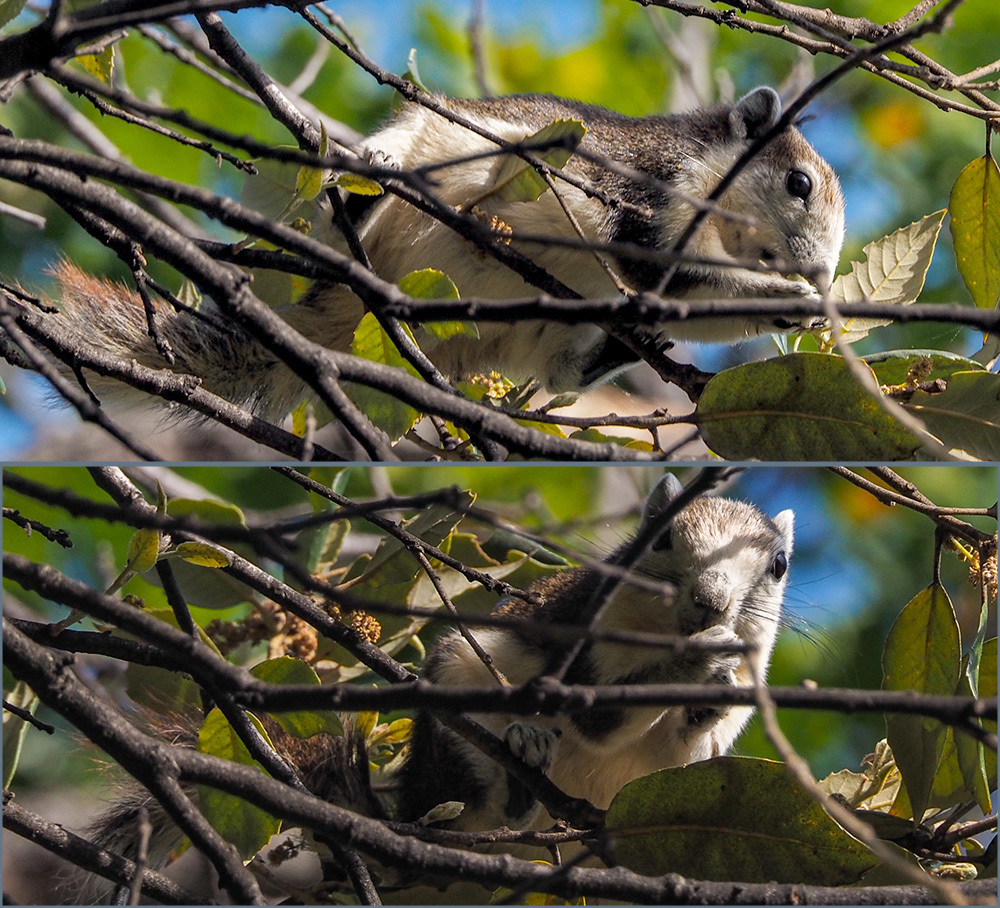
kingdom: Animalia
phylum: Chordata
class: Mammalia
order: Rodentia
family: Sciuridae
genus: Callosciurus
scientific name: Callosciurus finlaysonii
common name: Finlayson's squirrel
